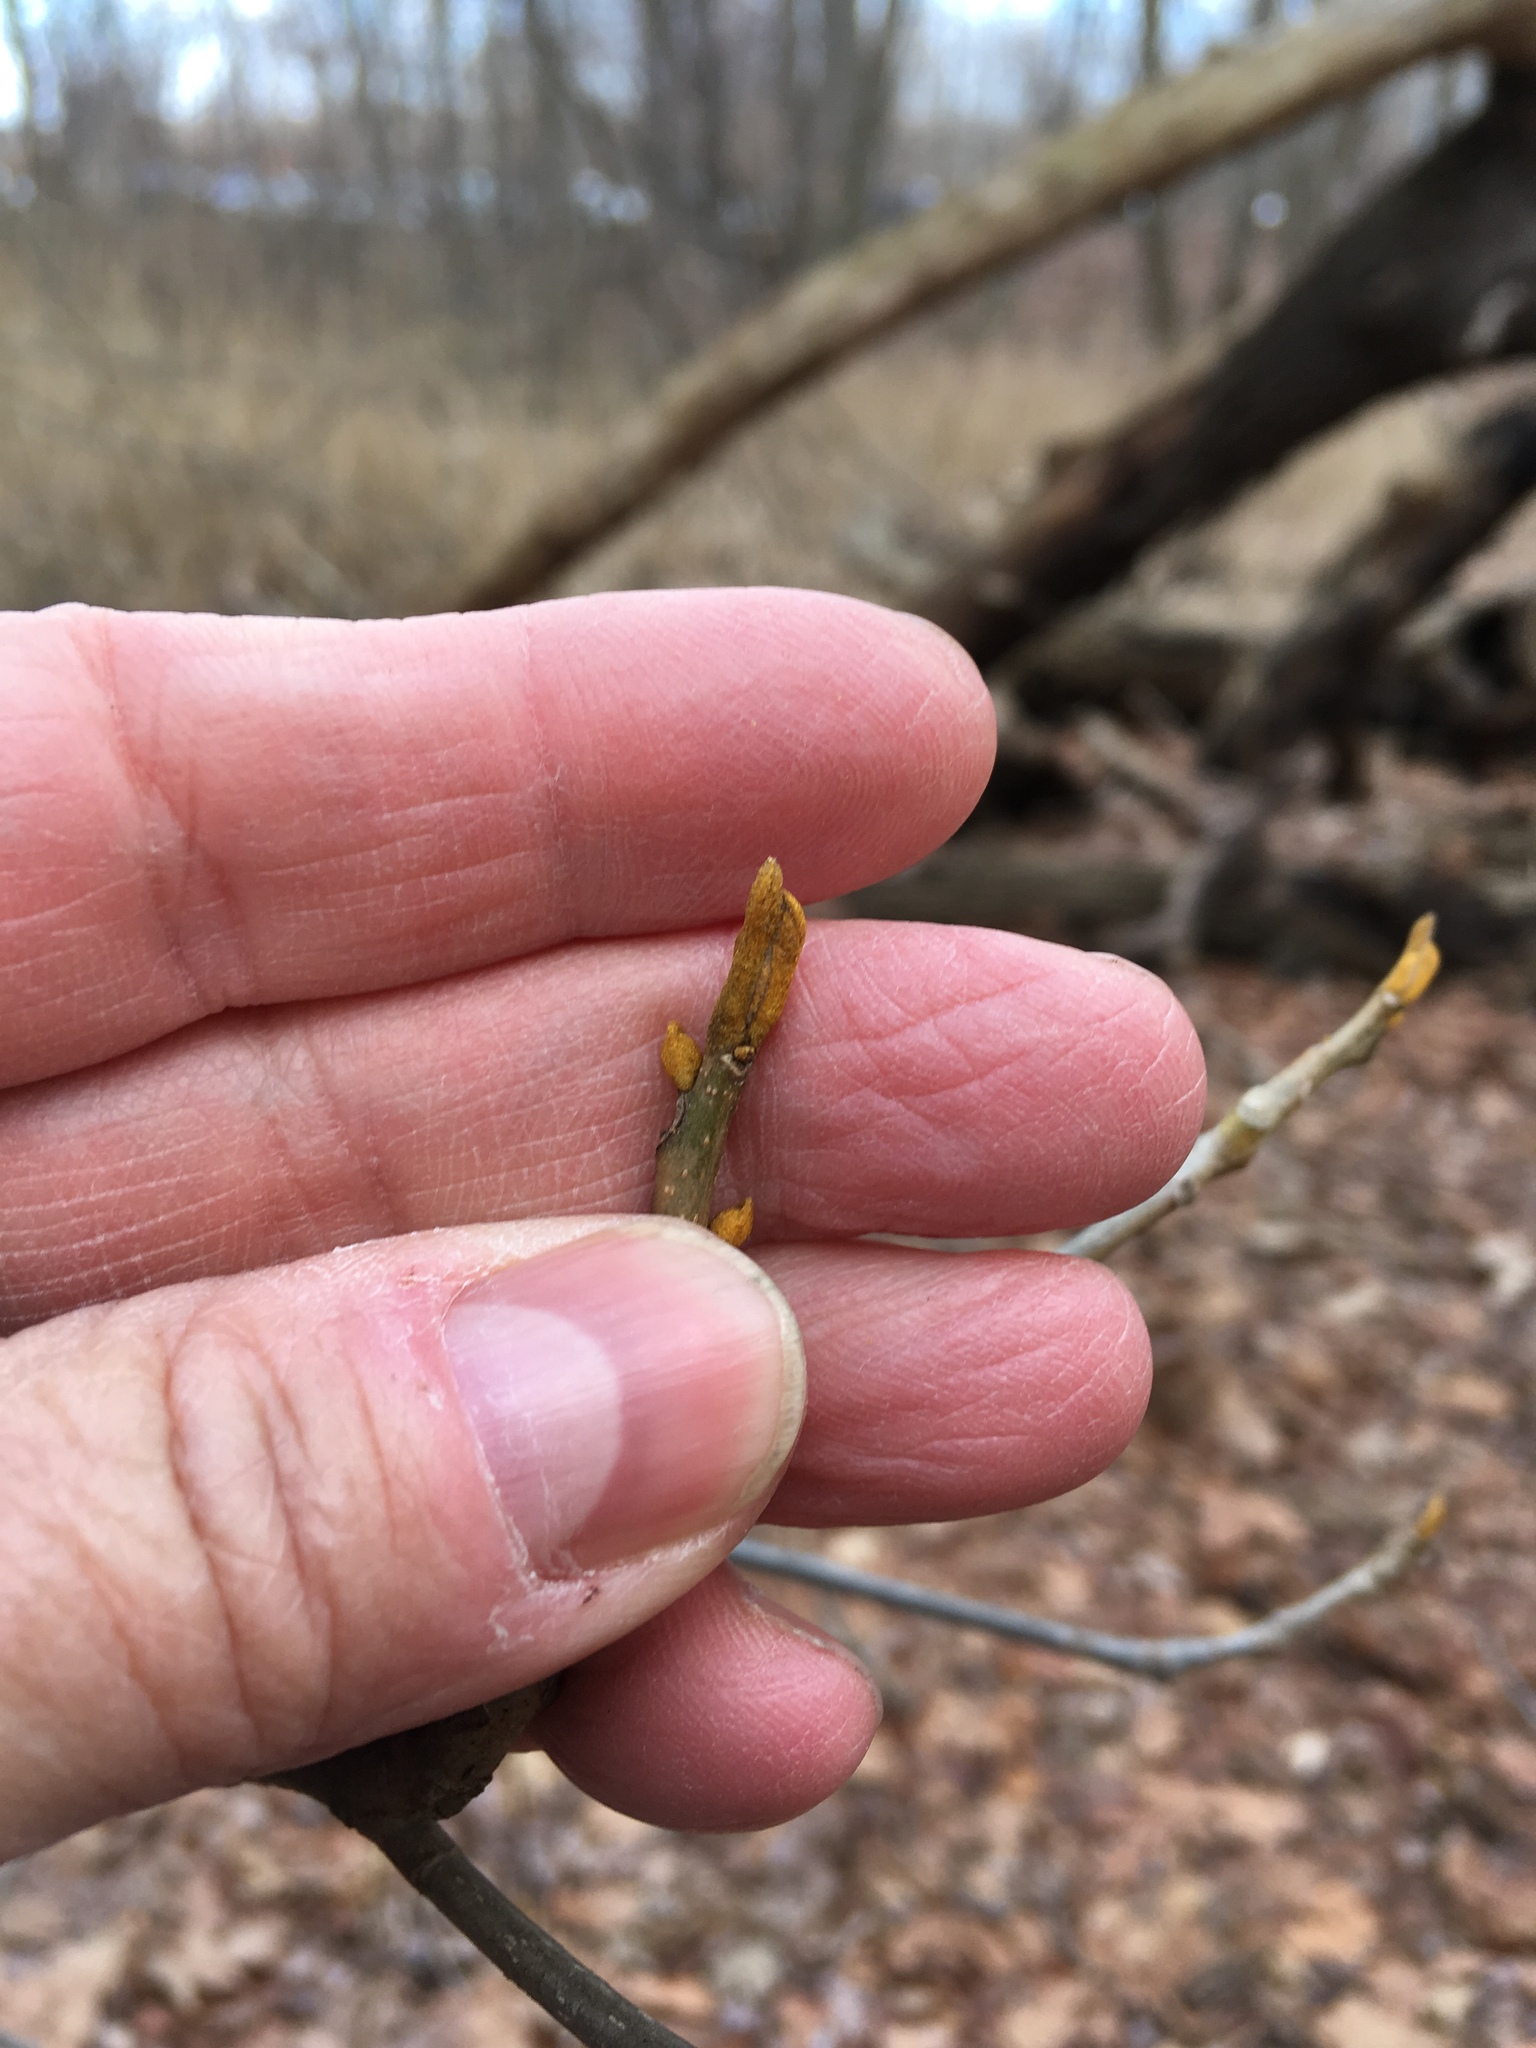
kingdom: Plantae
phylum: Tracheophyta
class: Magnoliopsida
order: Fagales
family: Juglandaceae
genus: Carya
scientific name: Carya cordiformis
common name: Bitternut hickory
